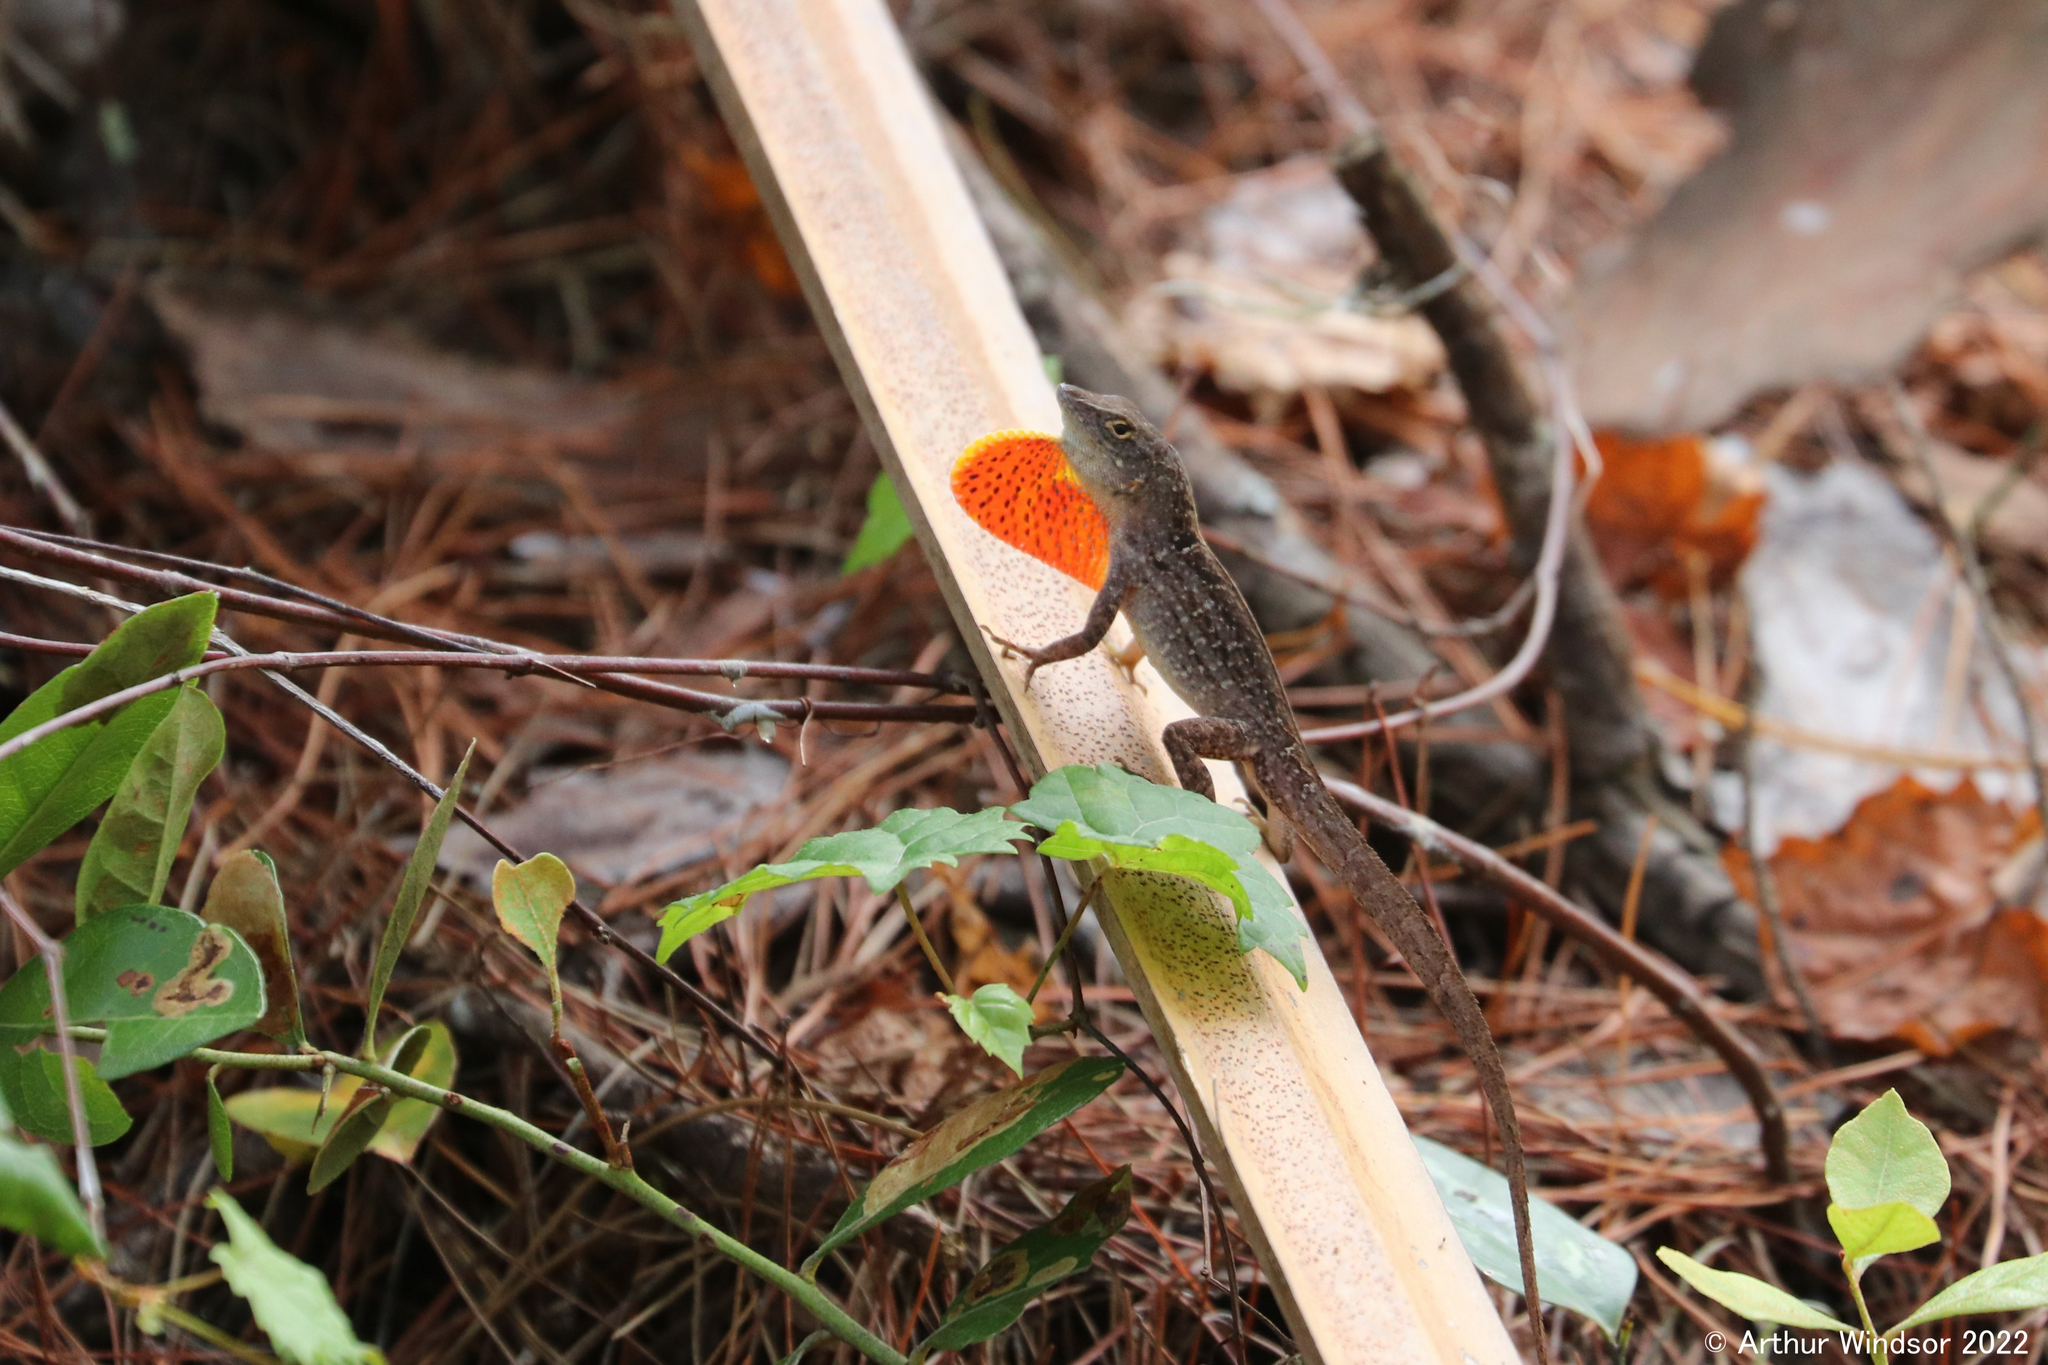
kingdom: Animalia
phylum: Chordata
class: Squamata
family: Dactyloidae
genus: Anolis
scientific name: Anolis sagrei
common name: Brown anole
